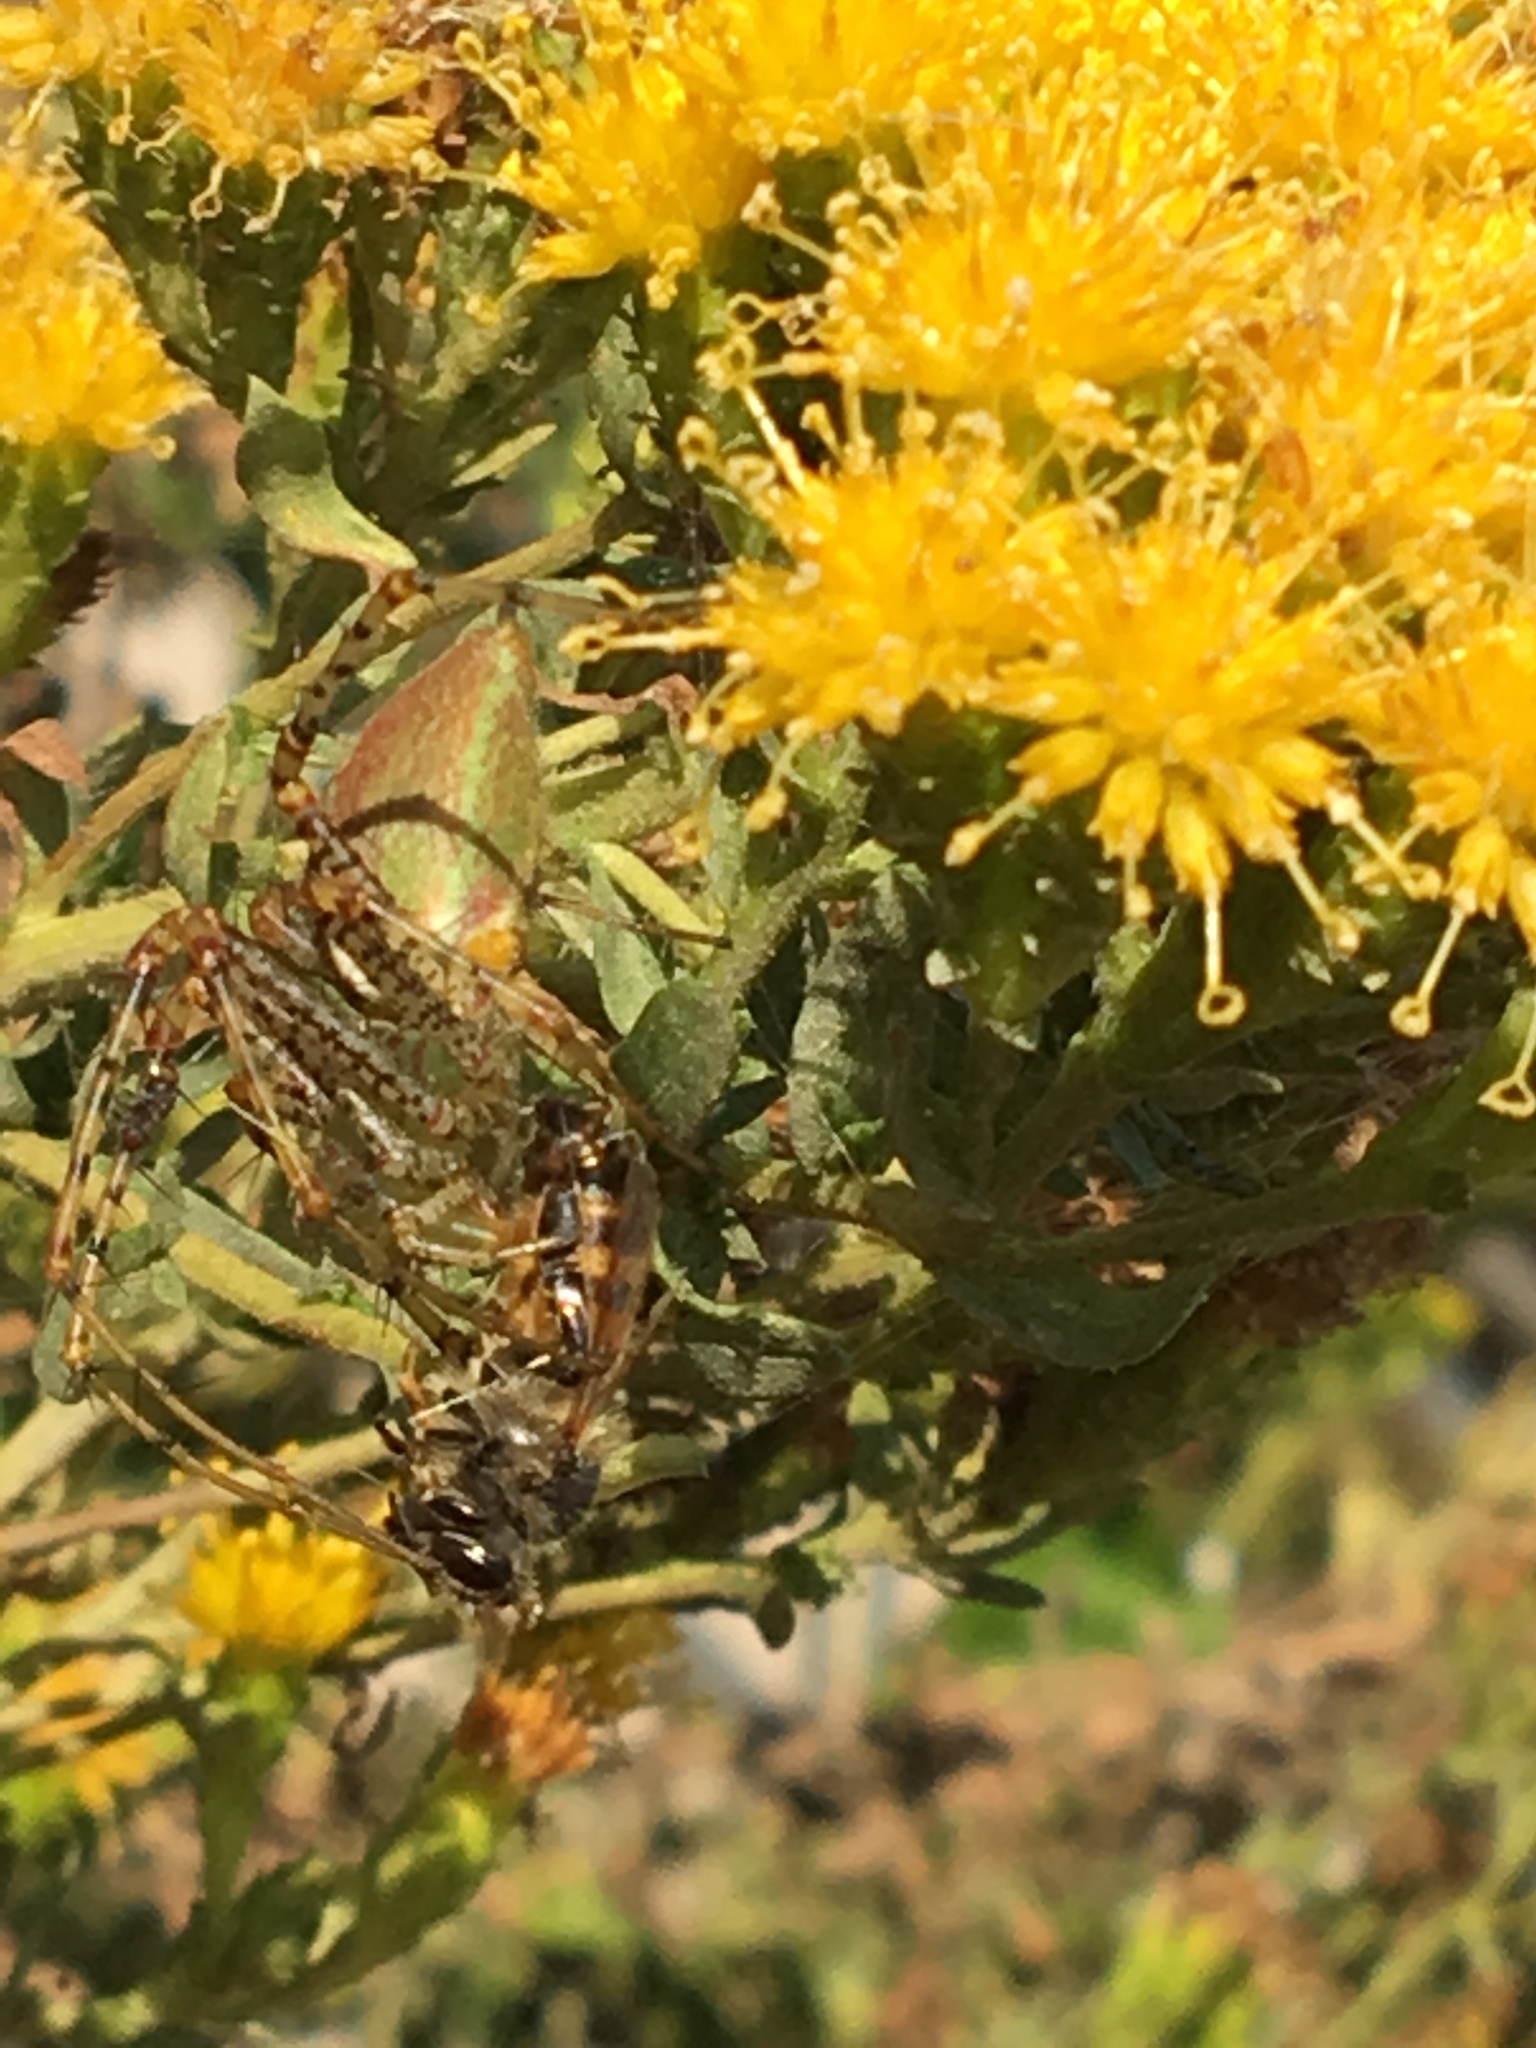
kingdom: Animalia
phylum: Arthropoda
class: Arachnida
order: Araneae
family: Oxyopidae
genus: Peucetia
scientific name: Peucetia viridans
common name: Lynx spiders
